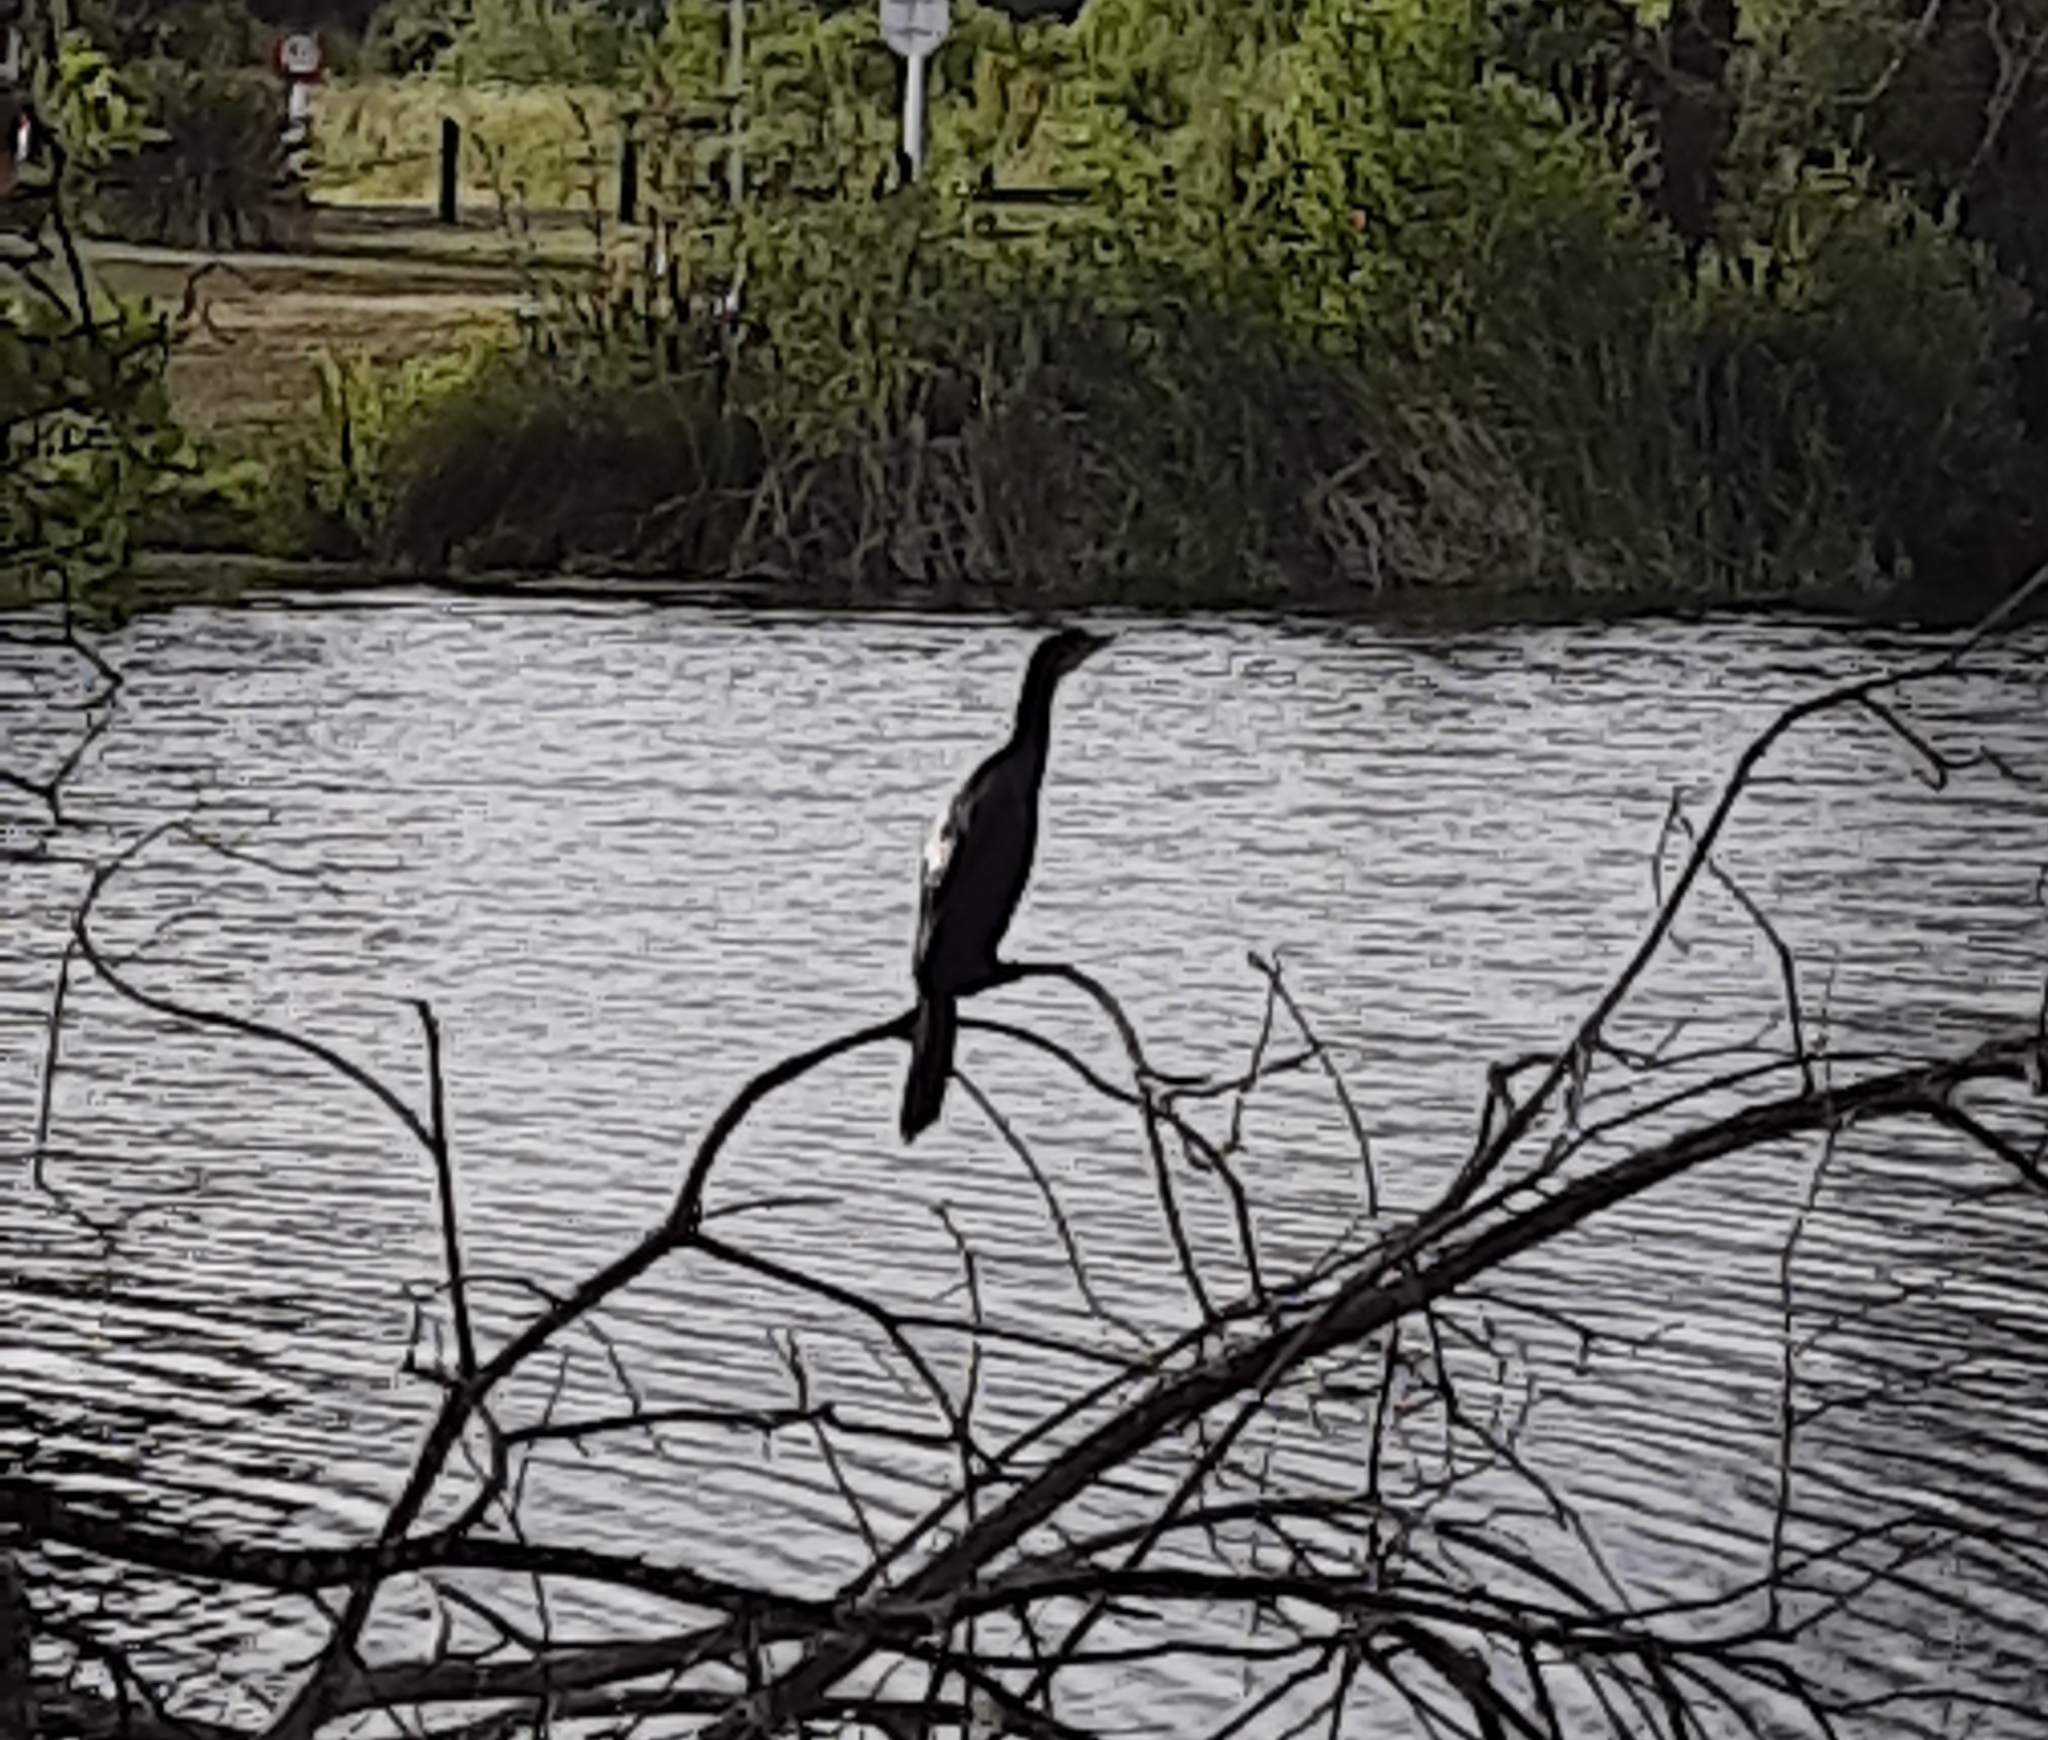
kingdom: Animalia
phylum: Chordata
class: Aves
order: Suliformes
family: Phalacrocoracidae
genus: Microcarbo
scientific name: Microcarbo melanoleucos
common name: Little pied cormorant
